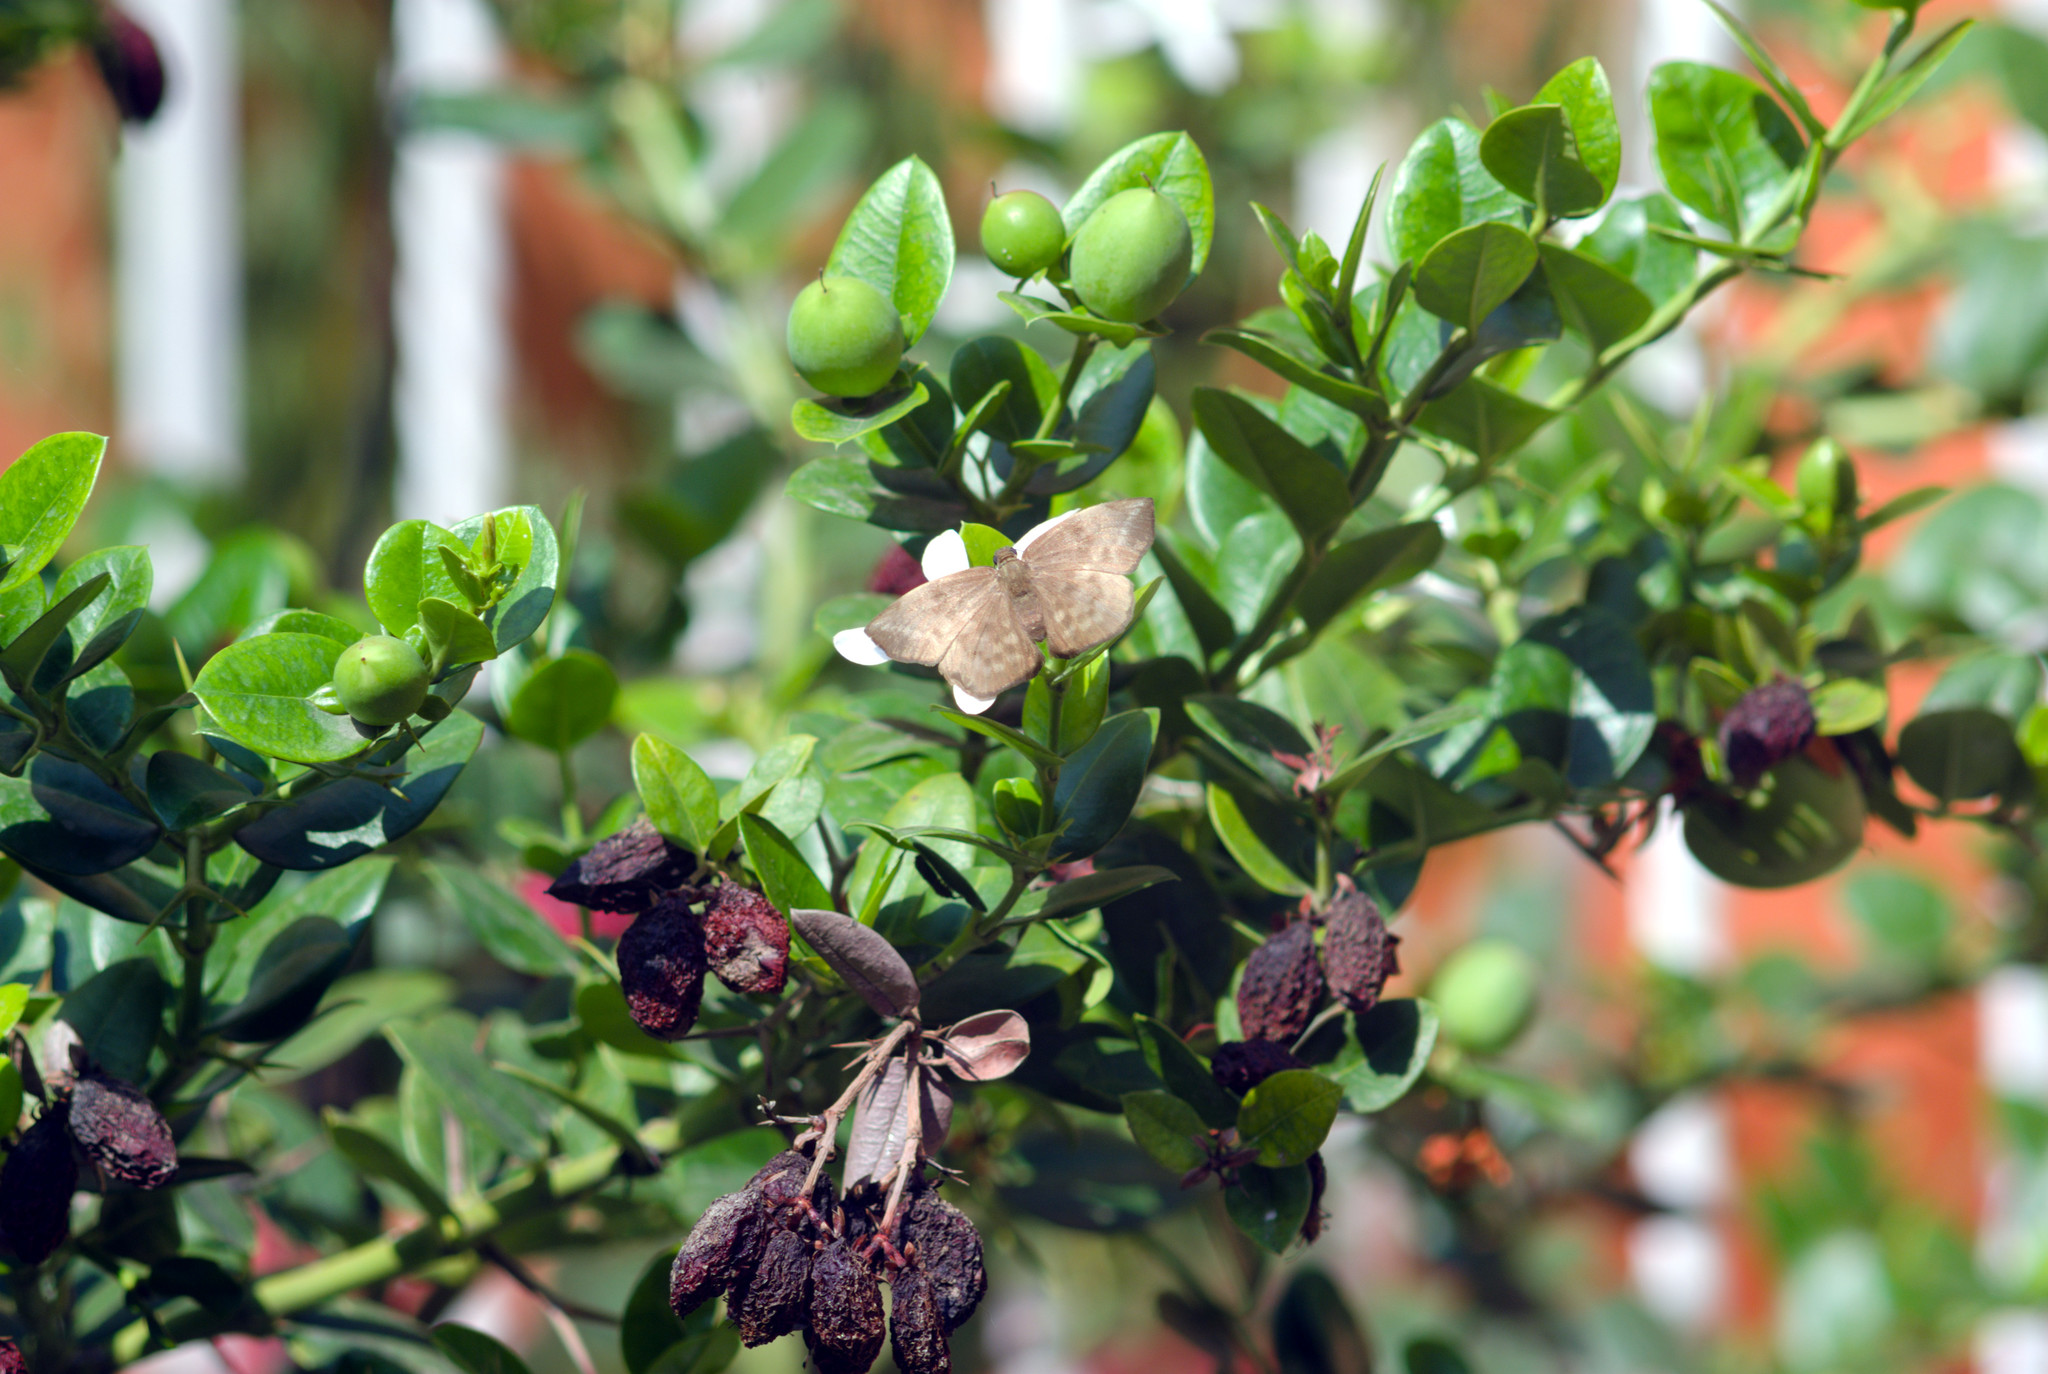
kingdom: Animalia
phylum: Arthropoda
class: Insecta
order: Lepidoptera
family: Hesperiidae
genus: Achlyodes
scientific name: Achlyodes pallida
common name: Pale sicklewing
